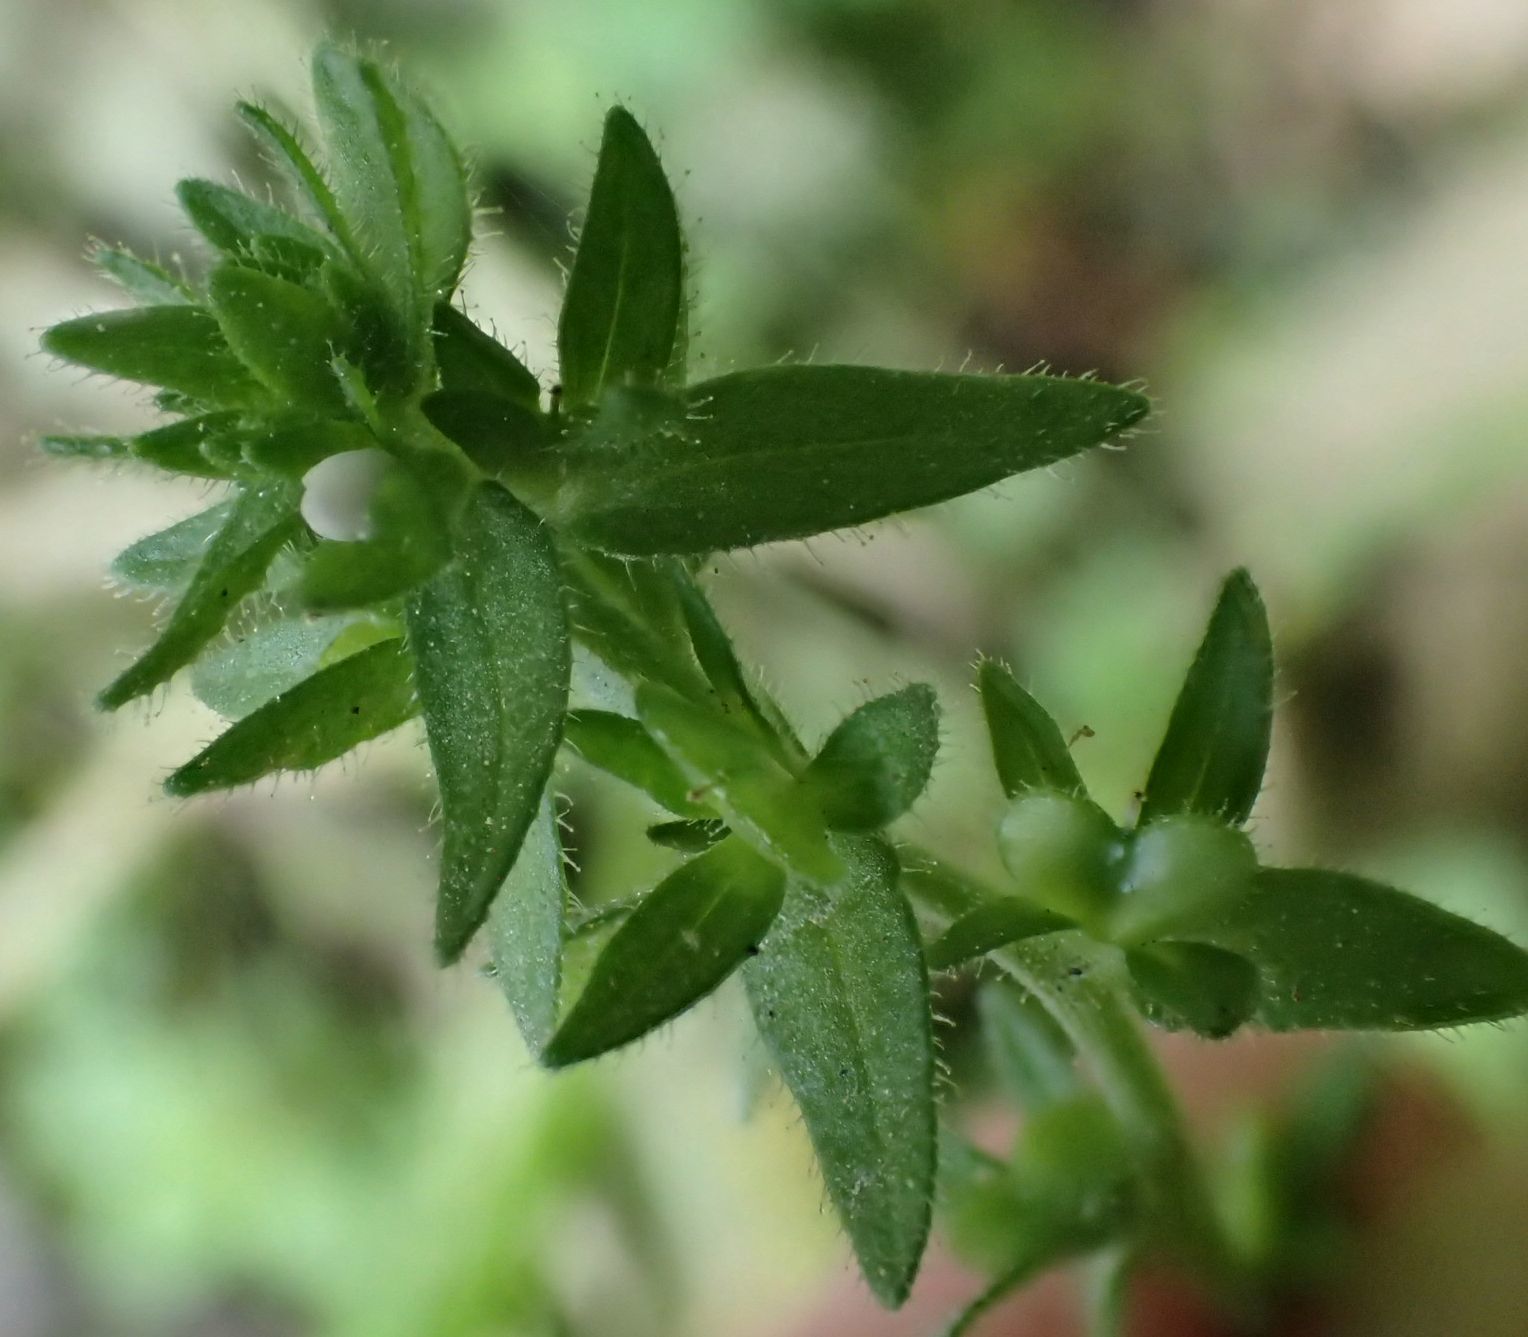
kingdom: Plantae
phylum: Tracheophyta
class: Magnoliopsida
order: Lamiales
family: Plantaginaceae
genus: Veronica
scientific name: Veronica arvensis
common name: Corn speedwell
